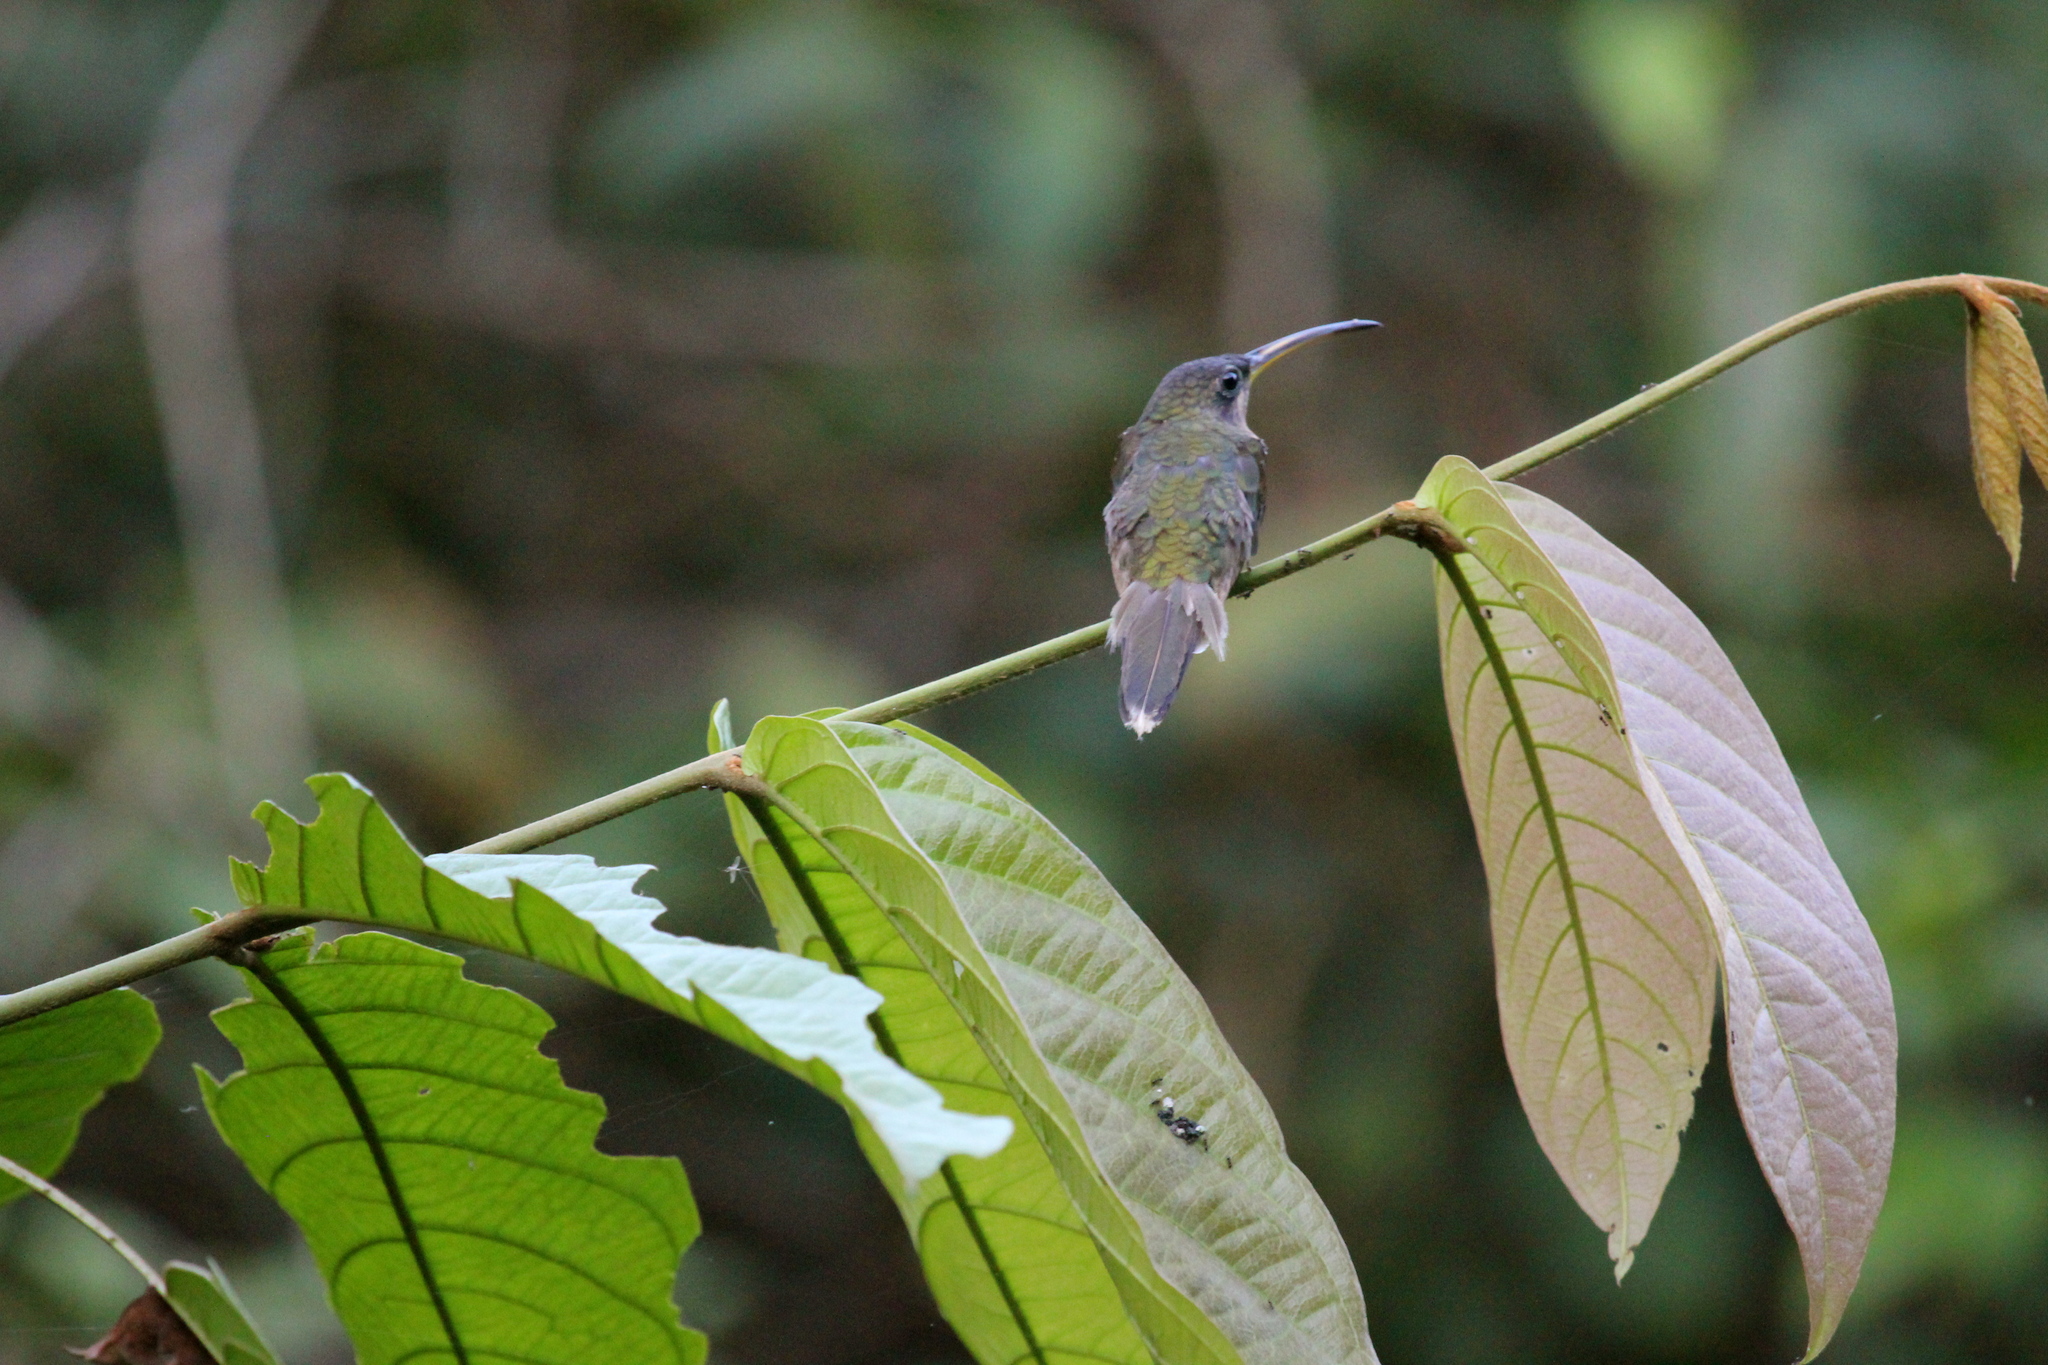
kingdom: Animalia
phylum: Chordata
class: Aves
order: Apodiformes
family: Trochilidae
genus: Glaucis
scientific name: Glaucis hirsutus
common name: Rufous-breasted hermit
